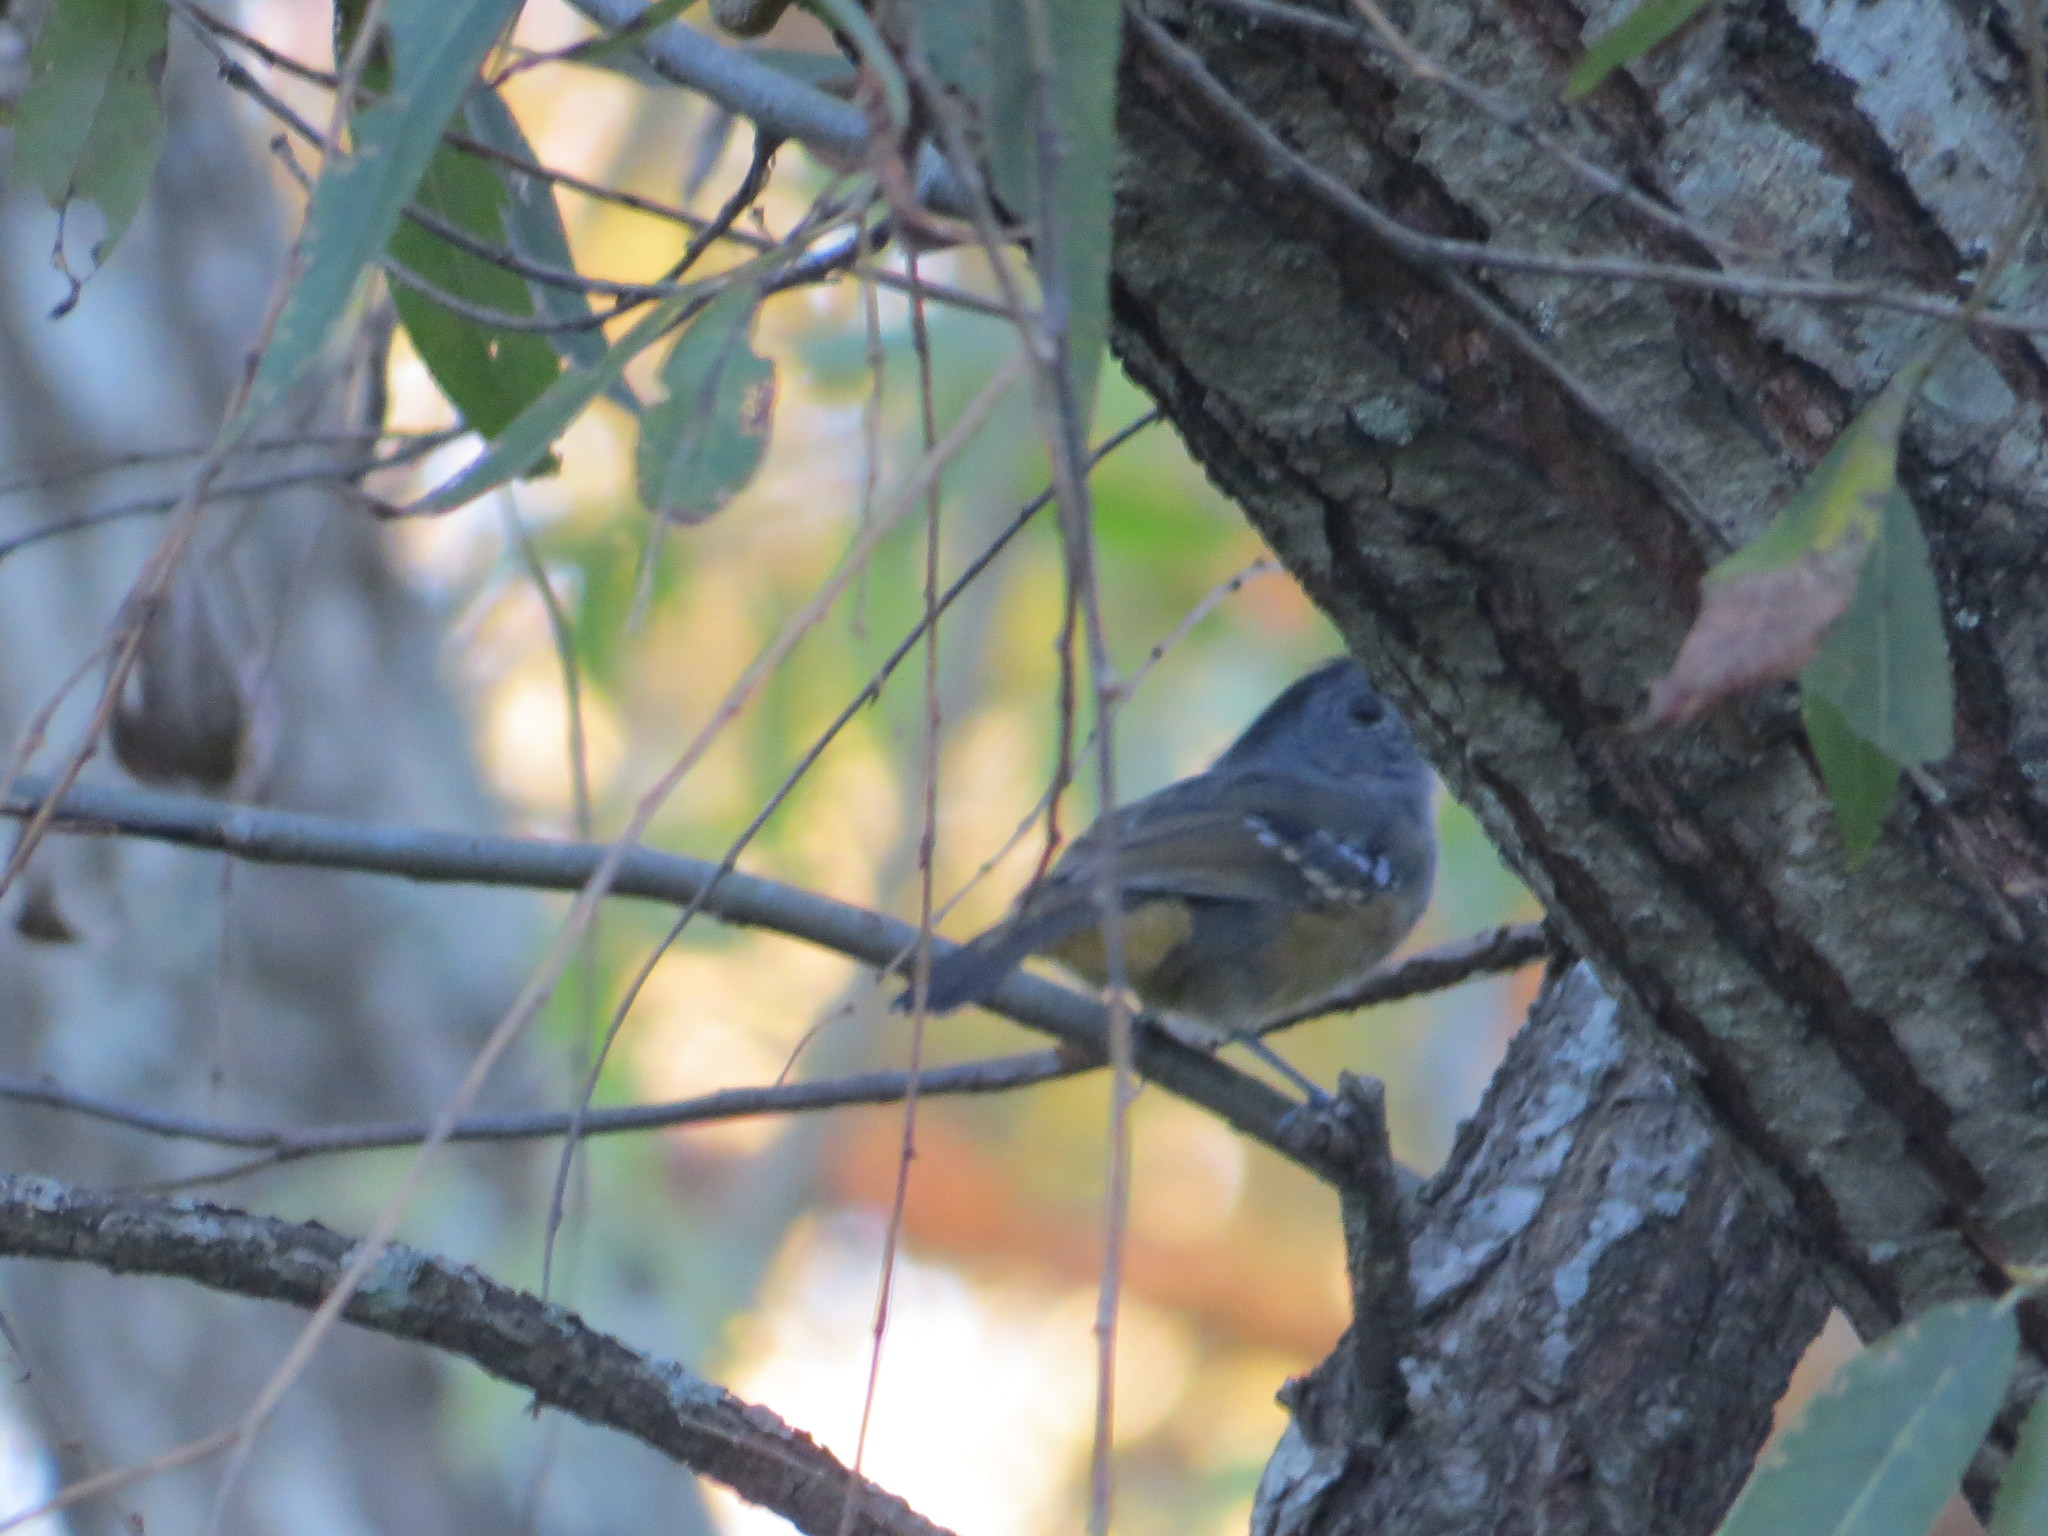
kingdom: Animalia
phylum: Chordata
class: Aves
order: Passeriformes
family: Thamnophilidae
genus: Thamnophilus
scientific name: Thamnophilus caerulescens
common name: Variable antshrike
